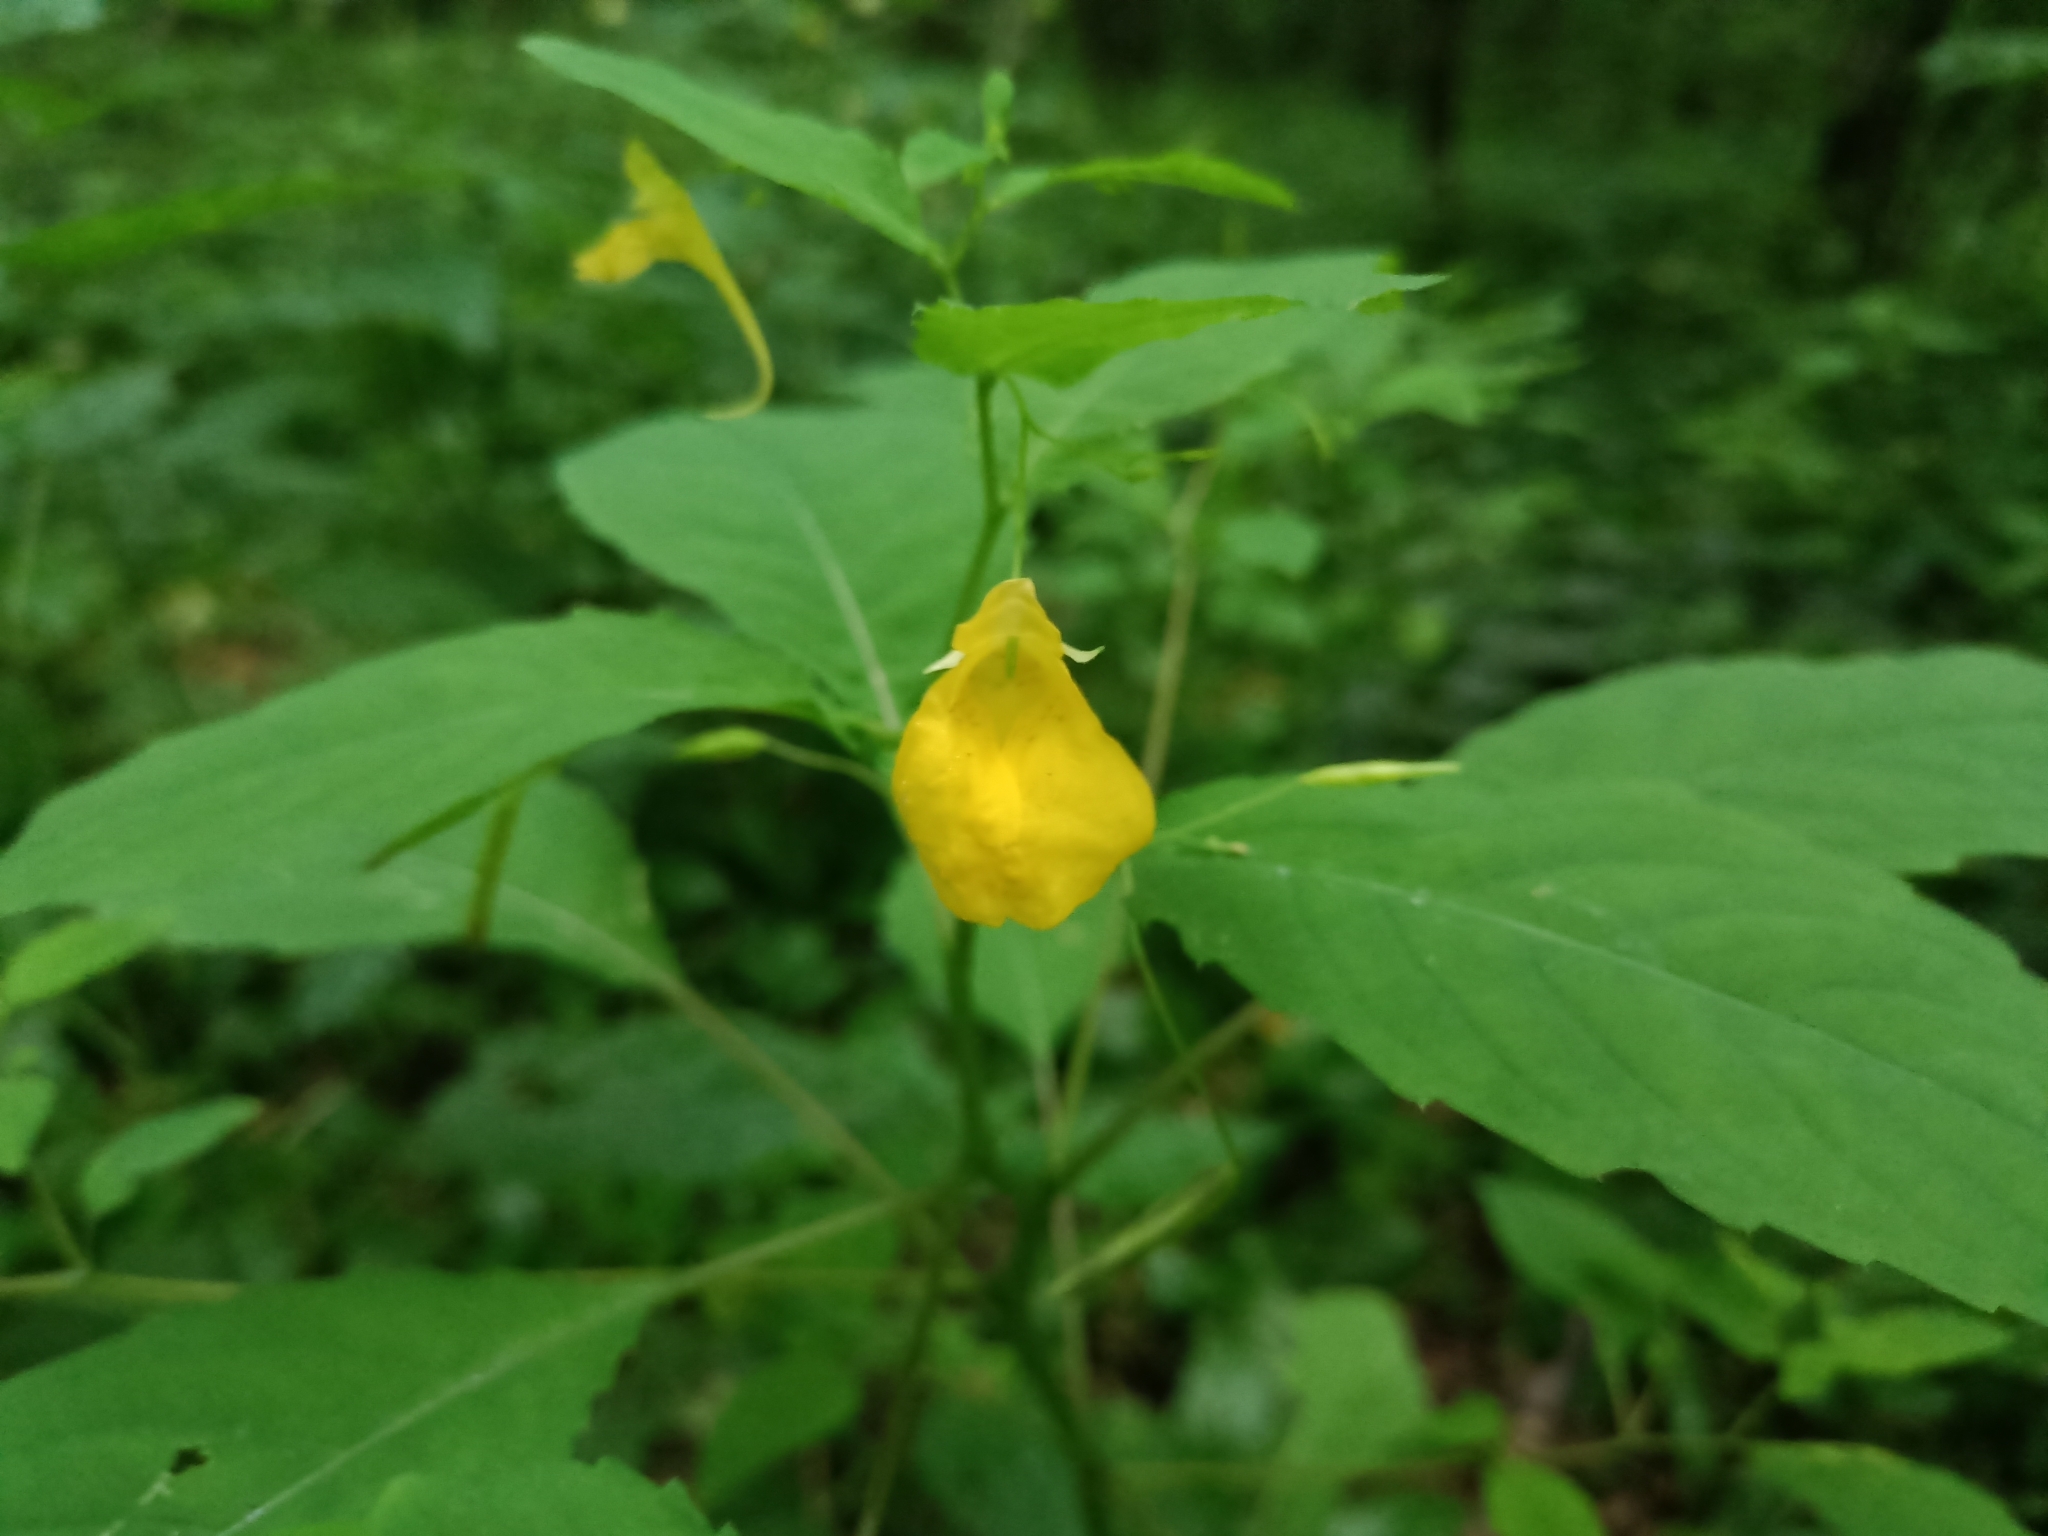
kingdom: Plantae
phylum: Tracheophyta
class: Magnoliopsida
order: Ericales
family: Balsaminaceae
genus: Impatiens
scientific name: Impatiens noli-tangere
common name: Touch-me-not balsam
